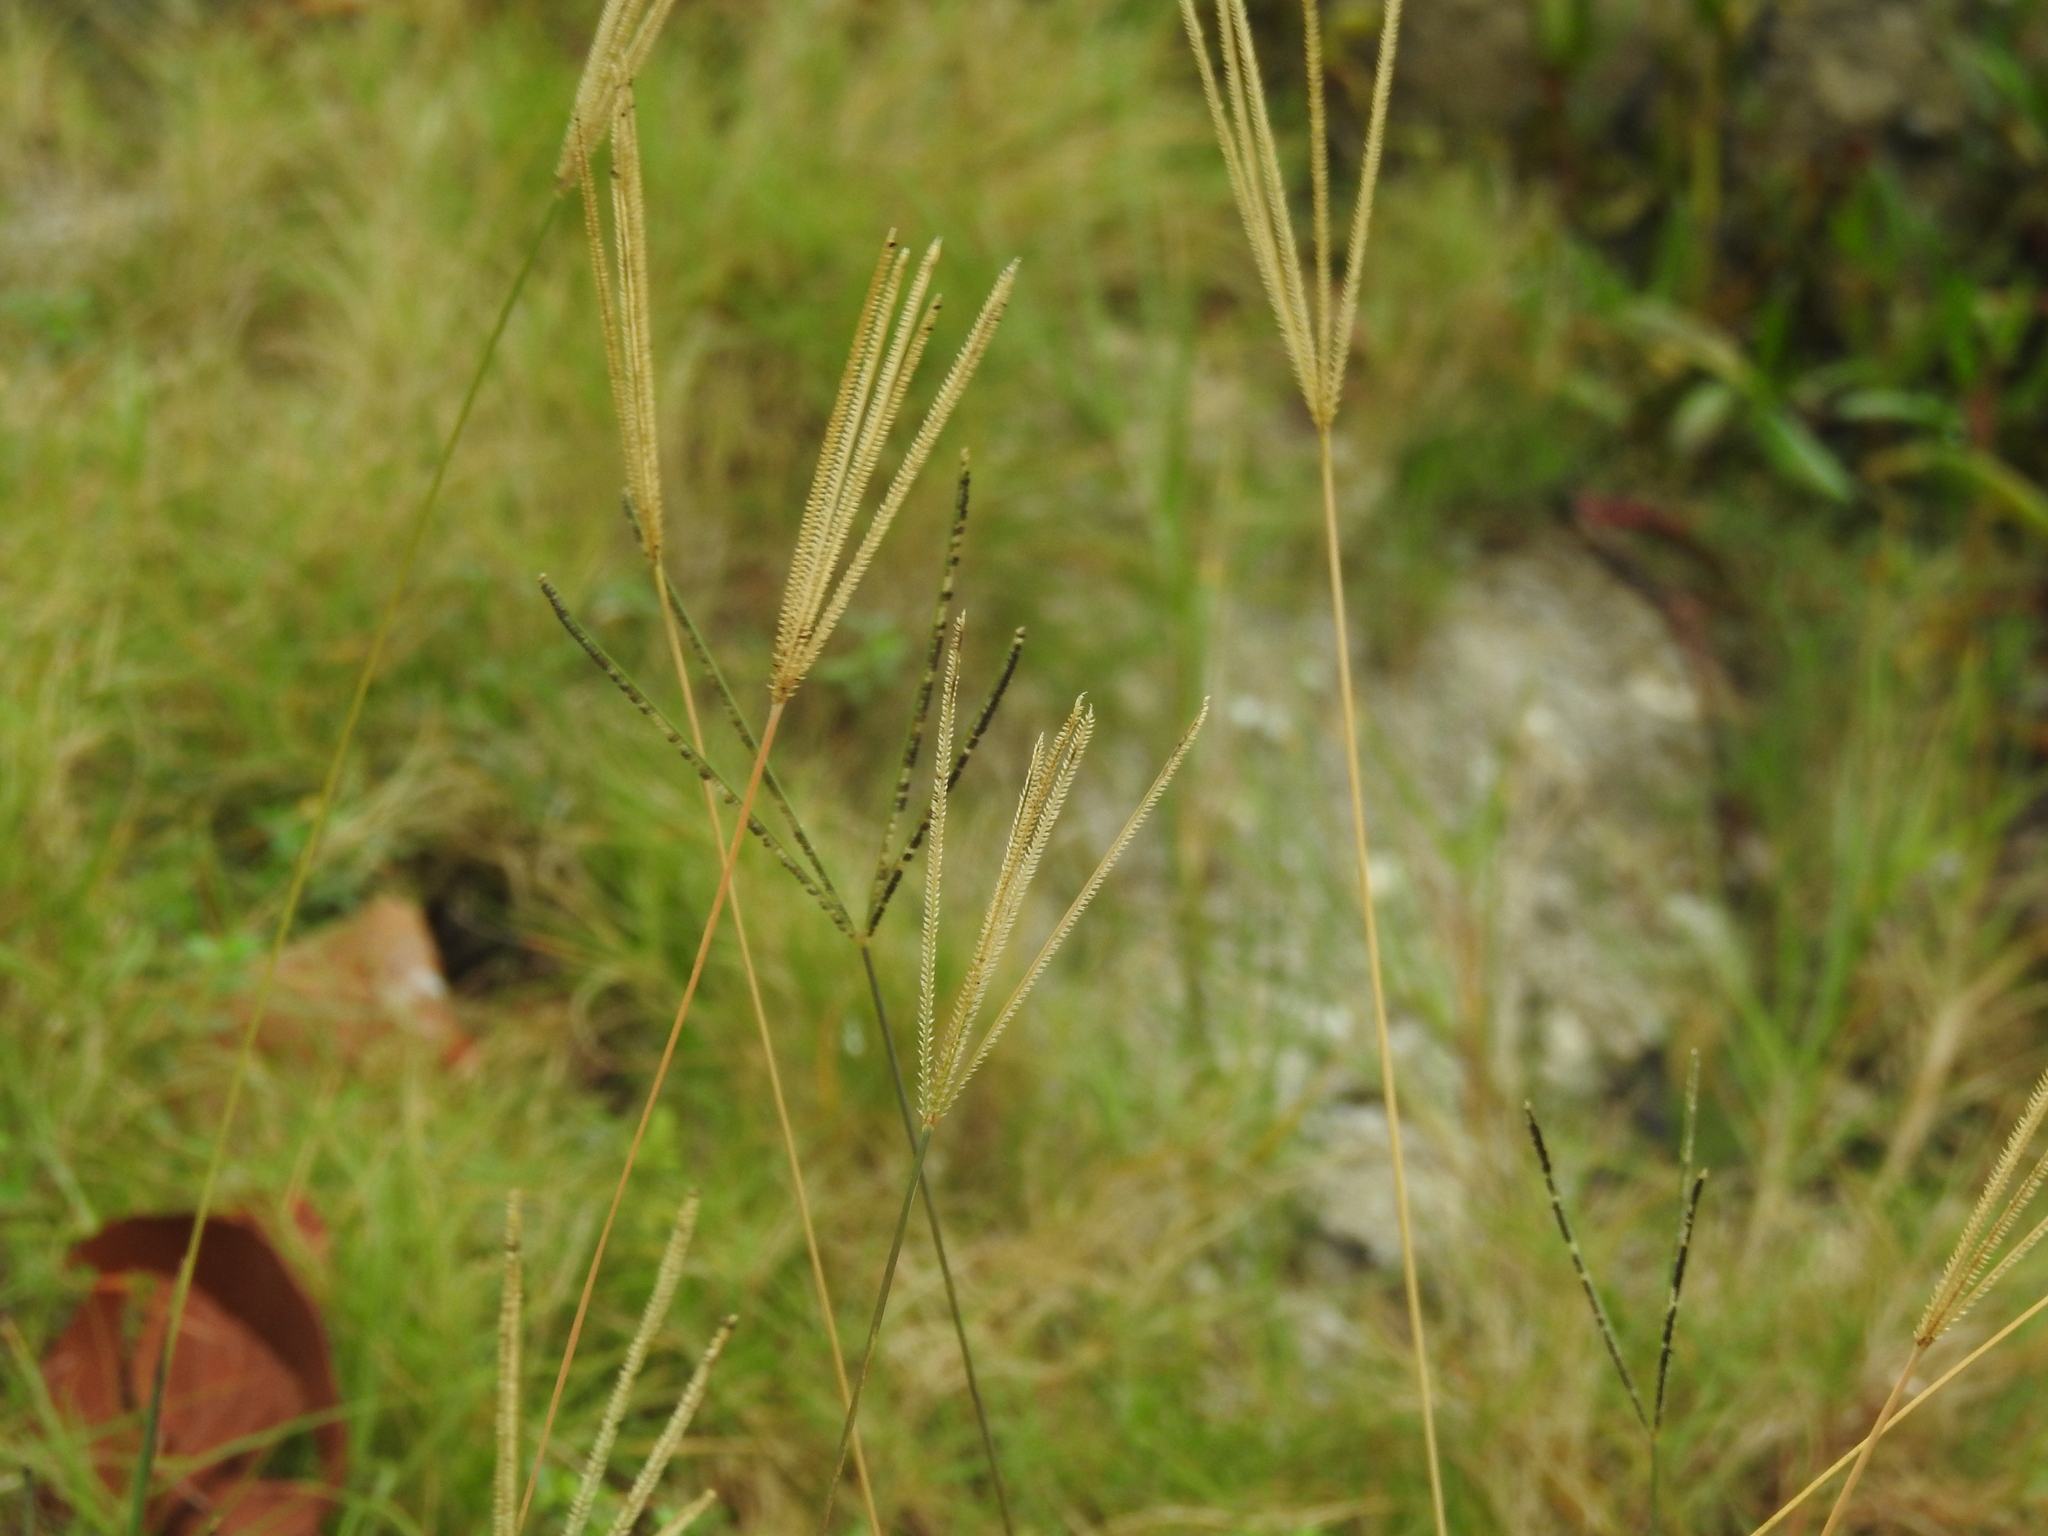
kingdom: Plantae
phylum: Tracheophyta
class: Liliopsida
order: Poales
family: Poaceae
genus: Eustachys
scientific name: Eustachys petraea
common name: Pinewoods fingergrass
